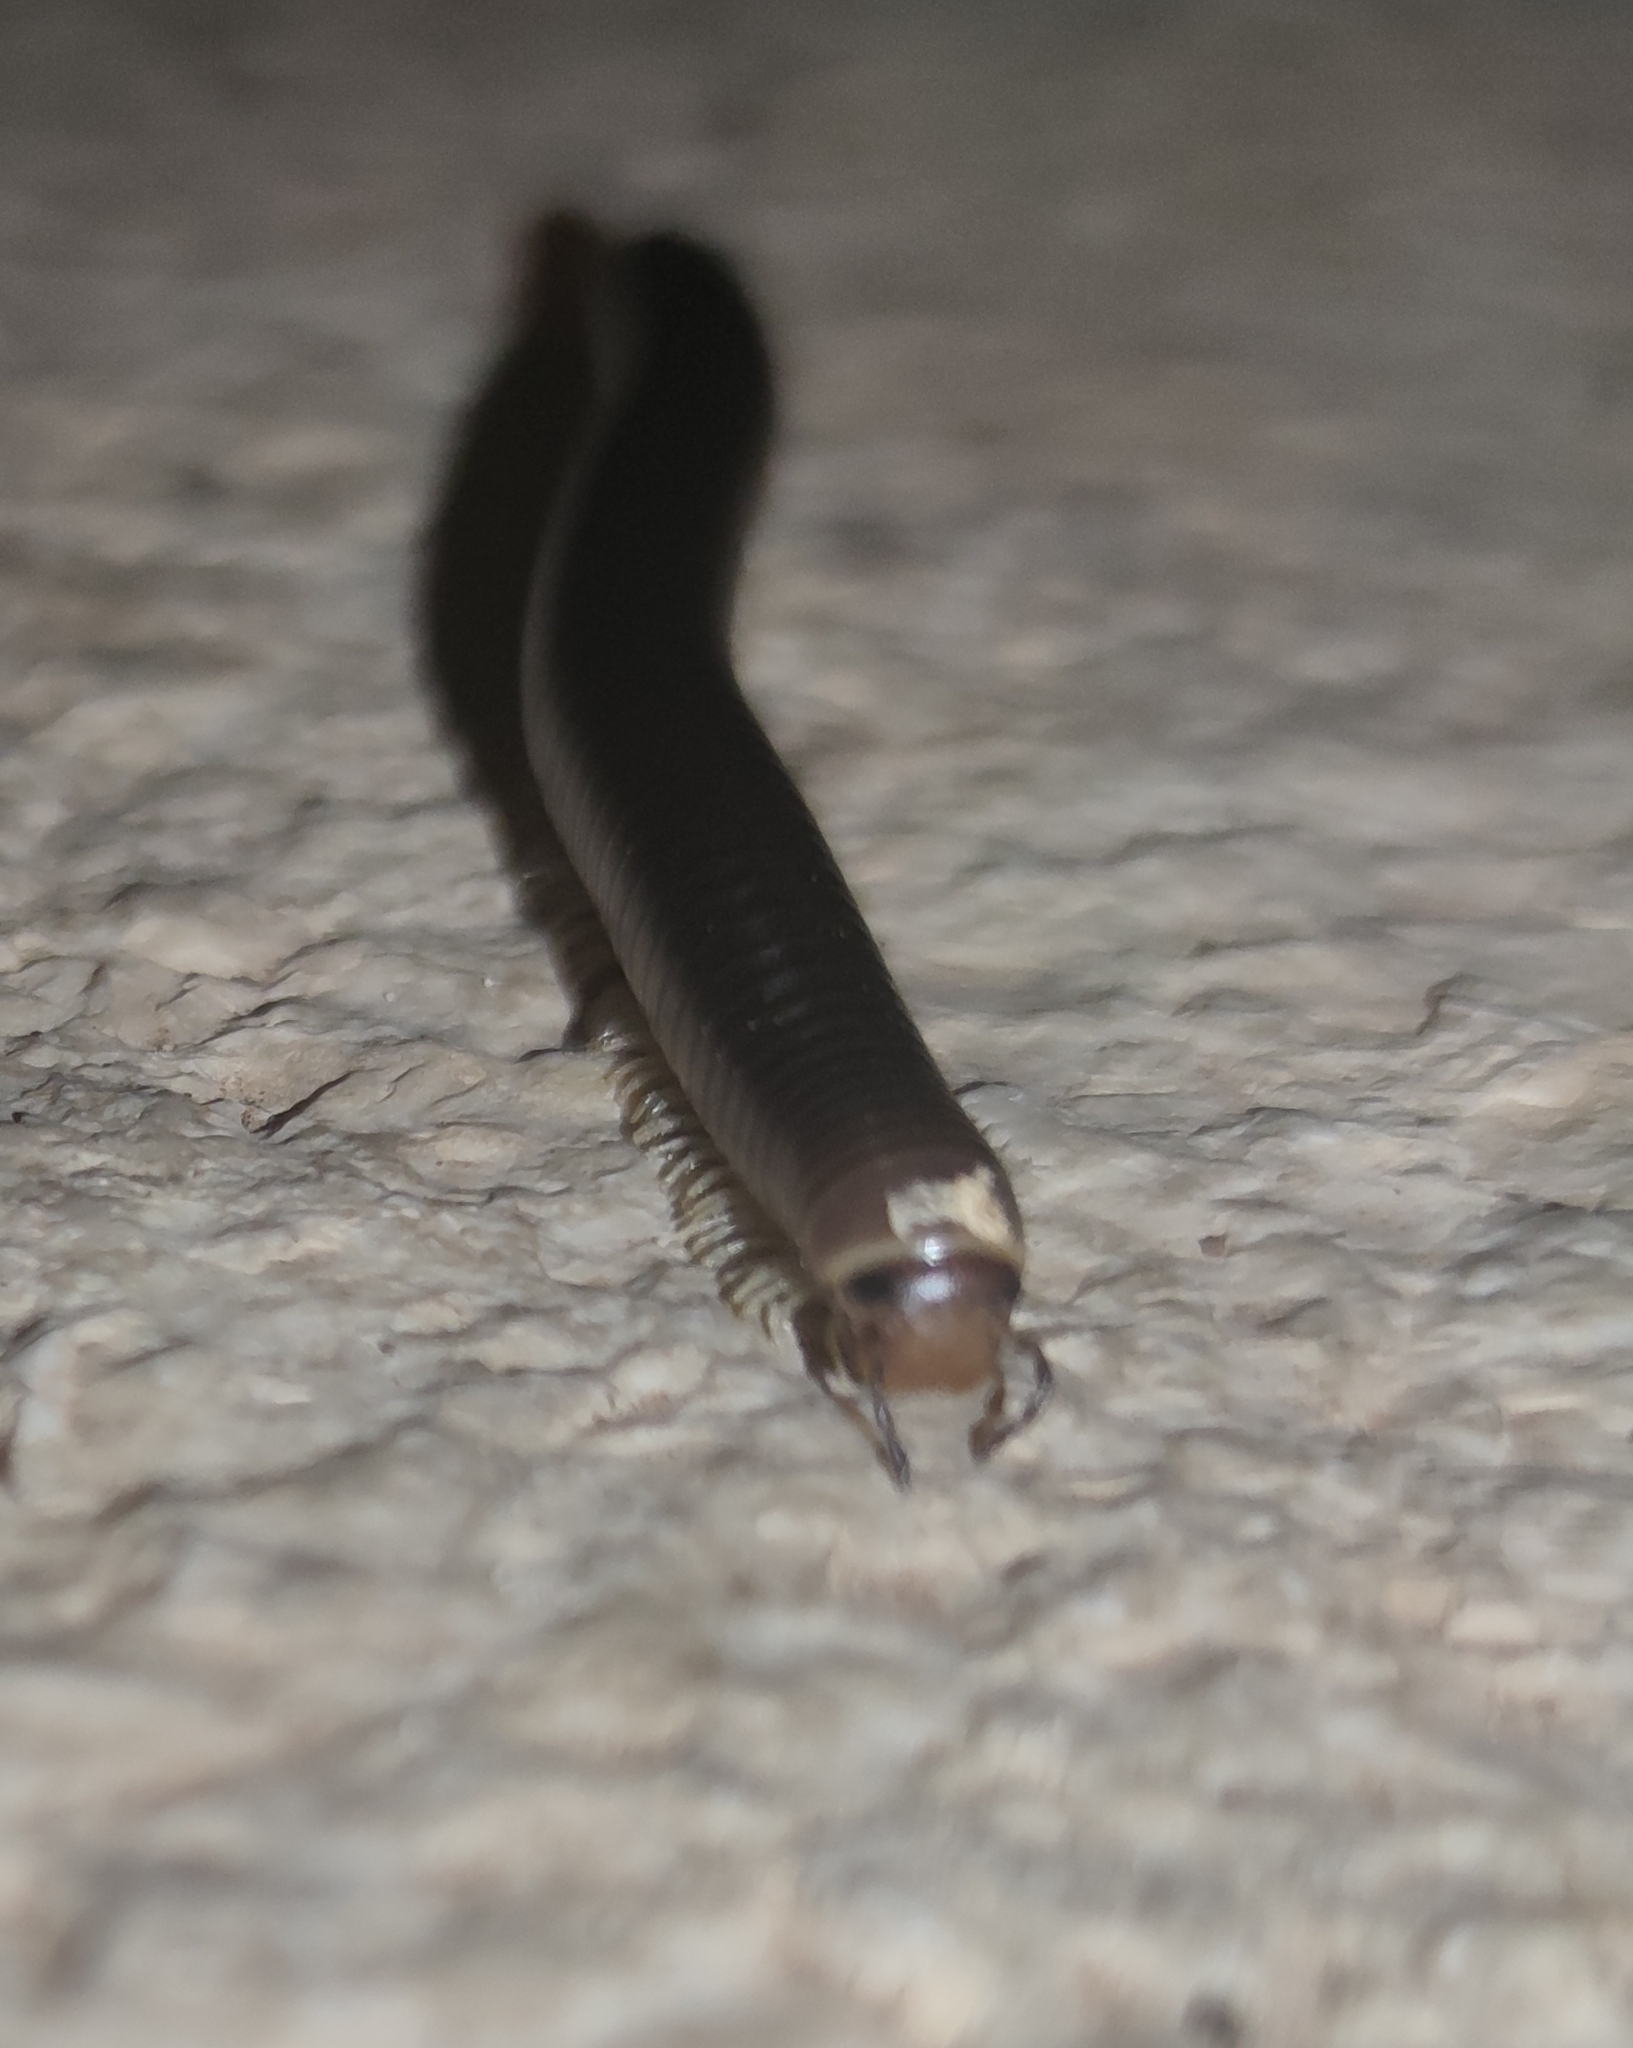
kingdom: Animalia
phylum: Arthropoda
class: Diplopoda
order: Julida
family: Julidae
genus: Pachyiulus
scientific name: Pachyiulus flavipes
